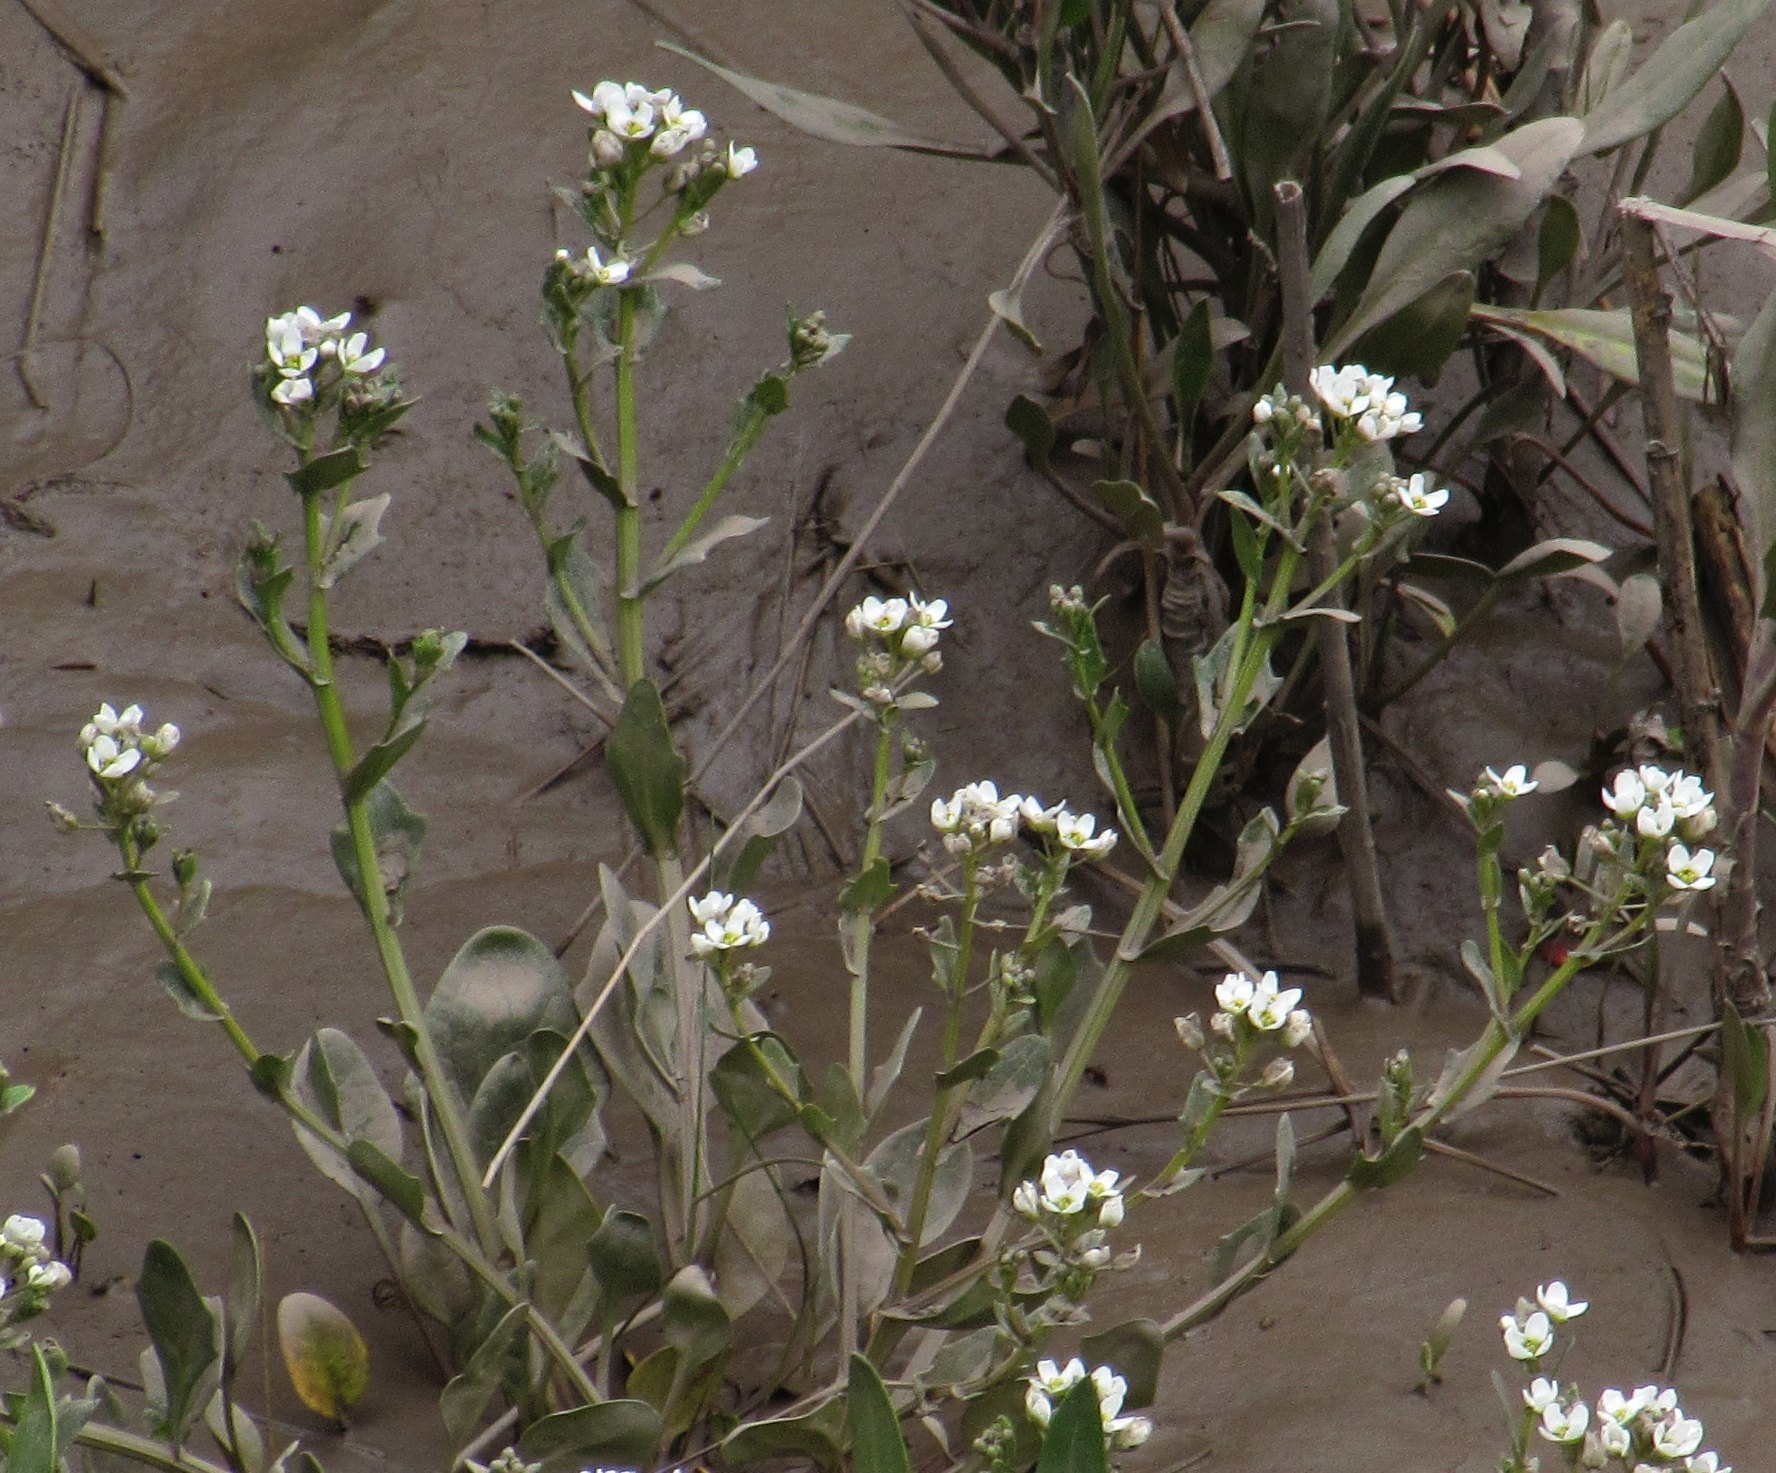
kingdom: Plantae
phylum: Tracheophyta
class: Magnoliopsida
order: Brassicales
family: Brassicaceae
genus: Cochlearia
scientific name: Cochlearia anglica
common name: English scurvygrass
